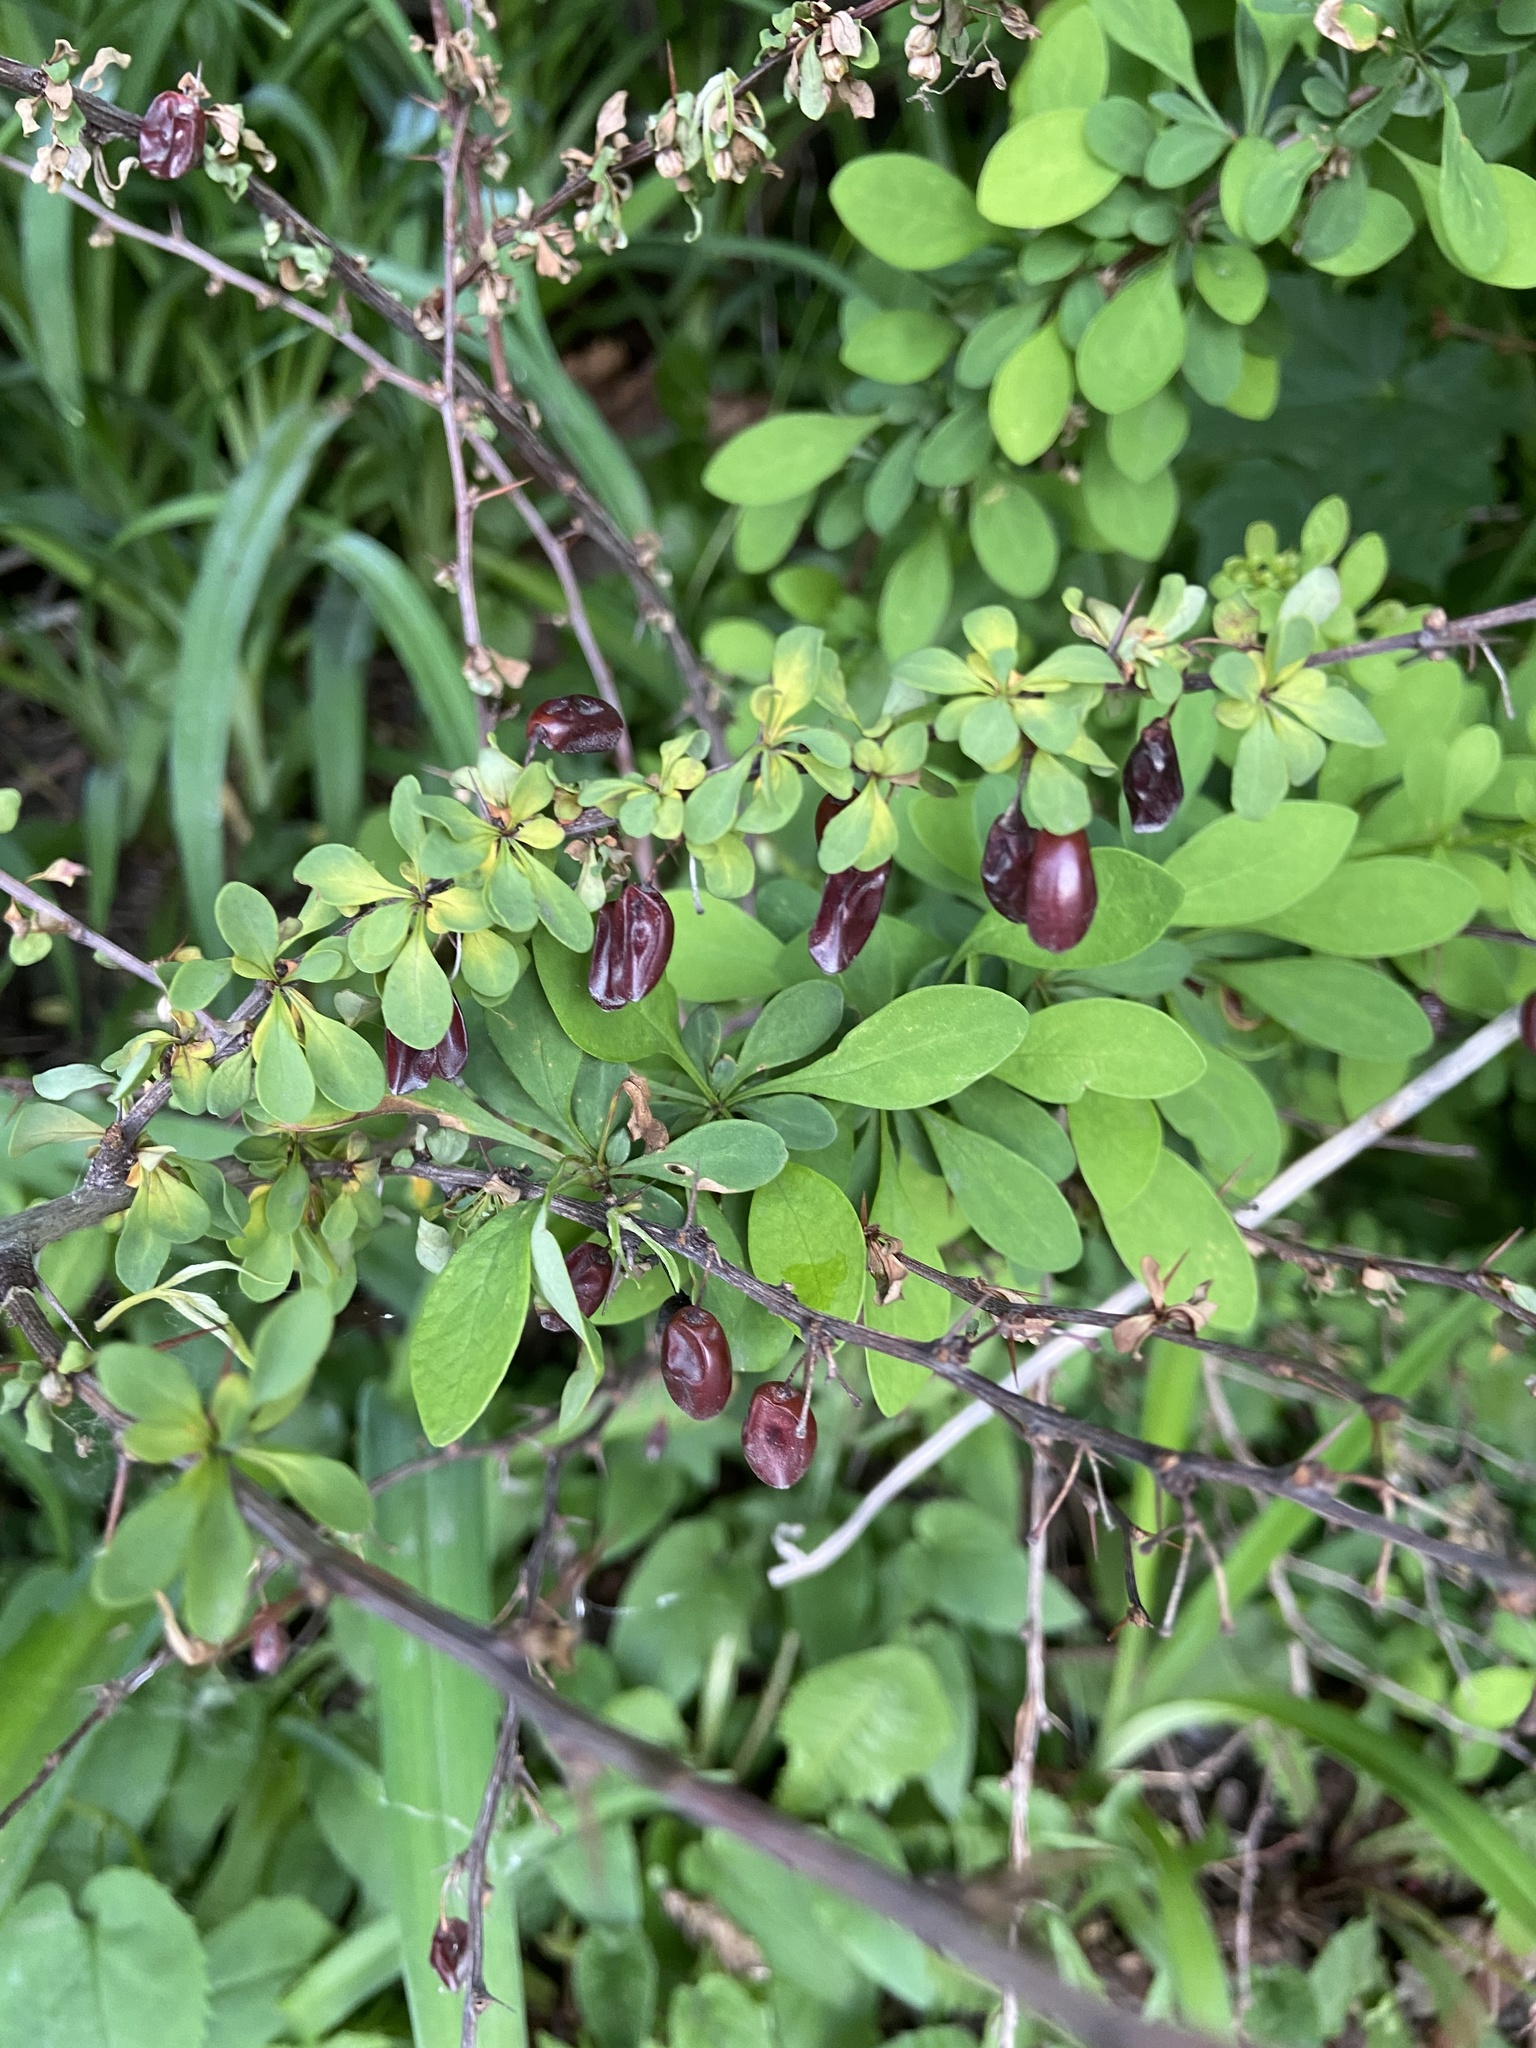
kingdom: Plantae
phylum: Tracheophyta
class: Magnoliopsida
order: Ranunculales
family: Berberidaceae
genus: Berberis
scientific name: Berberis thunbergii
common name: Japanese barberry
